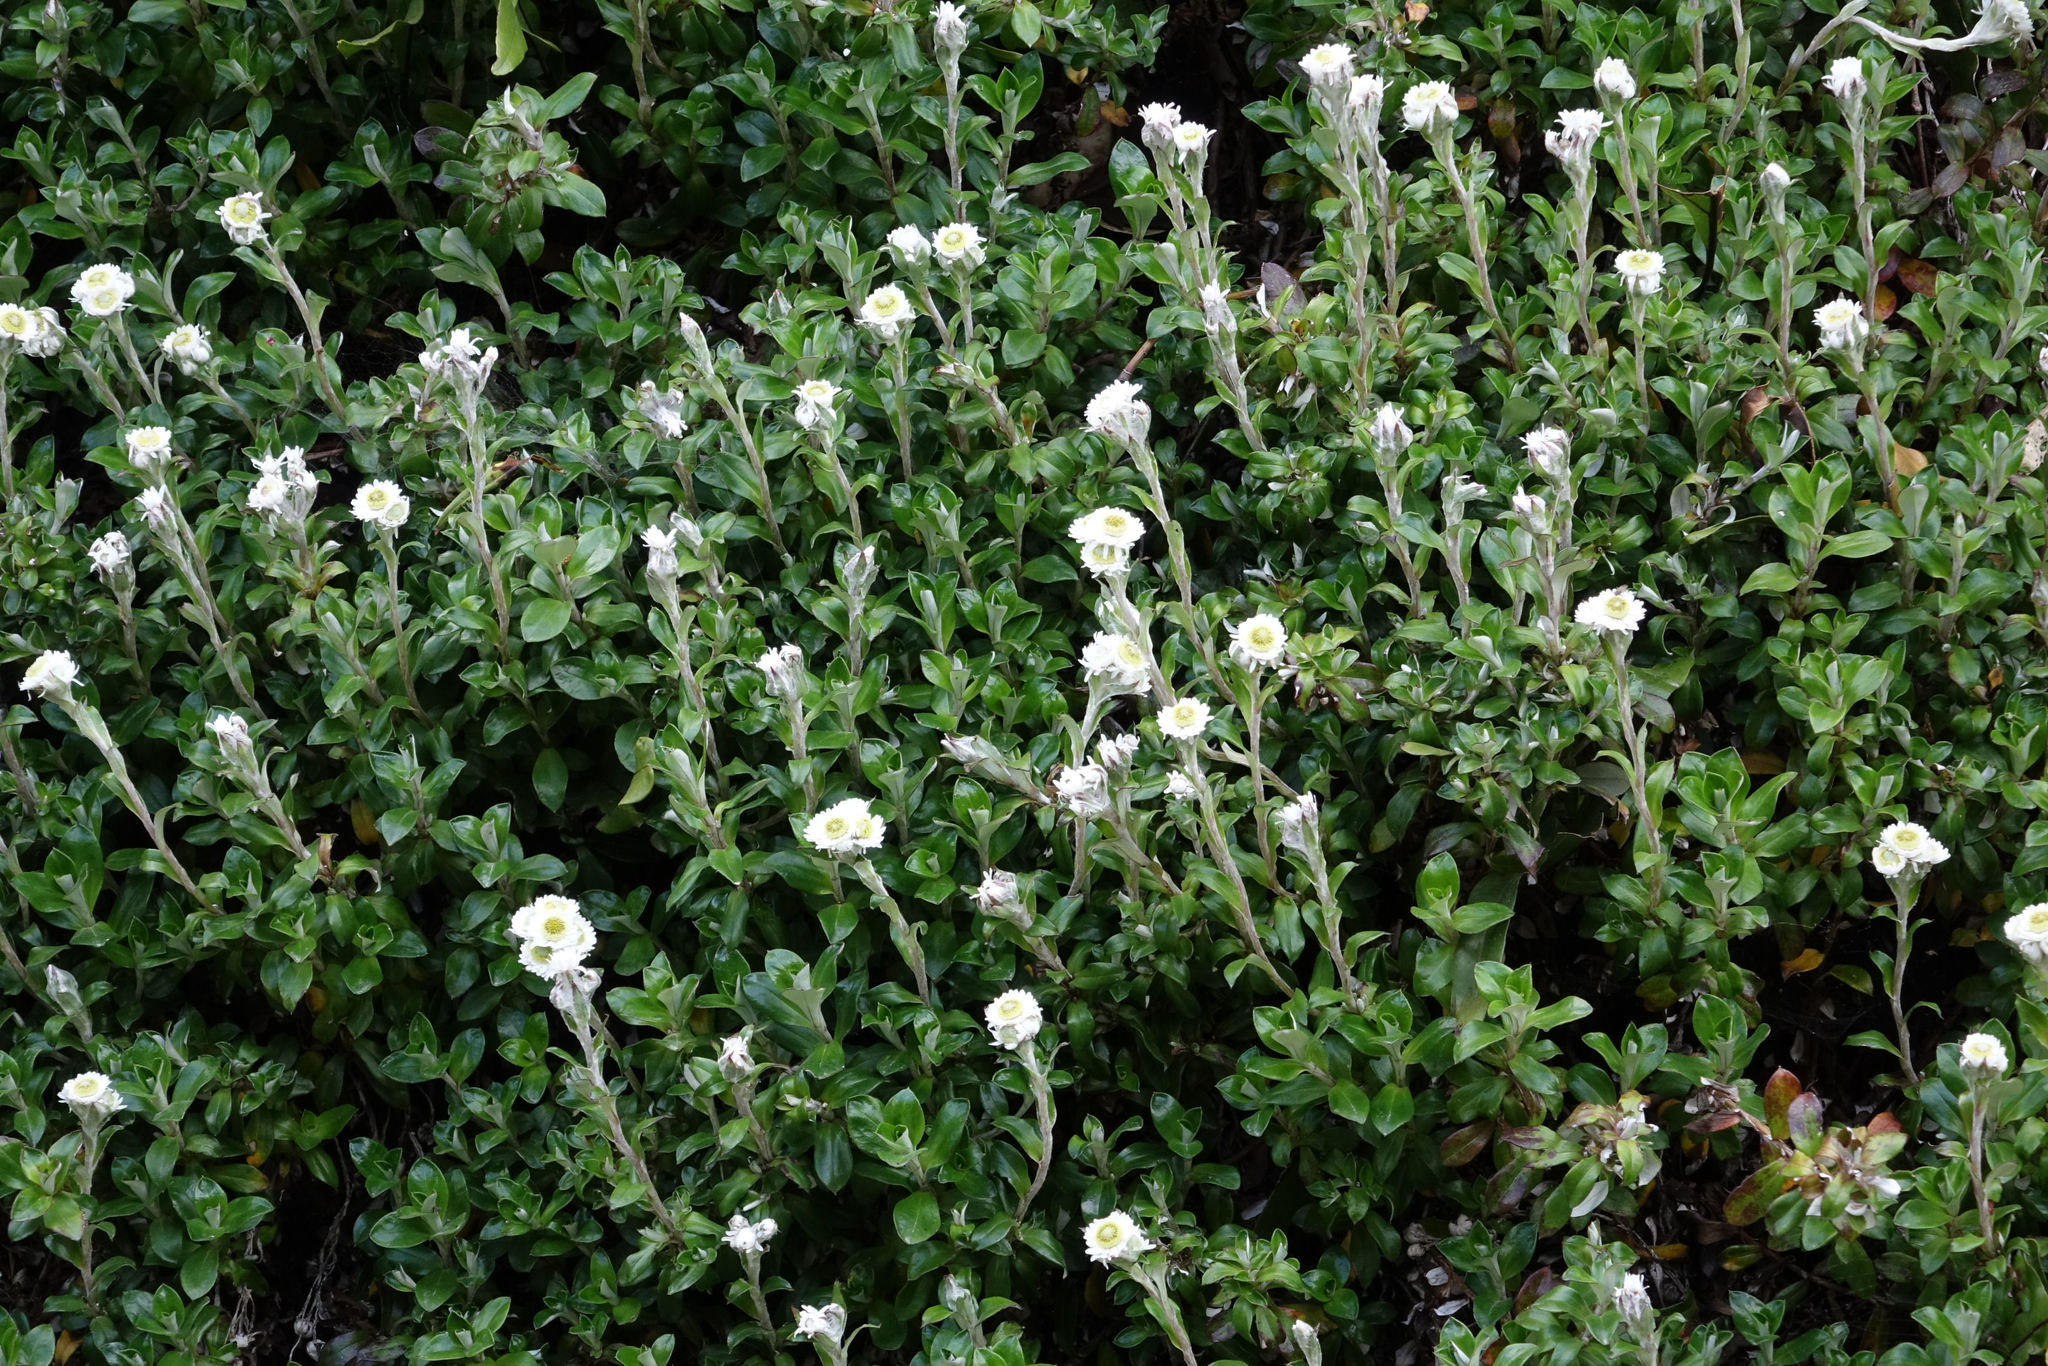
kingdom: Plantae
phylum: Tracheophyta
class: Magnoliopsida
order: Asterales
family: Asteraceae
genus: Anaphalioides
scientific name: Anaphalioides hookeri
